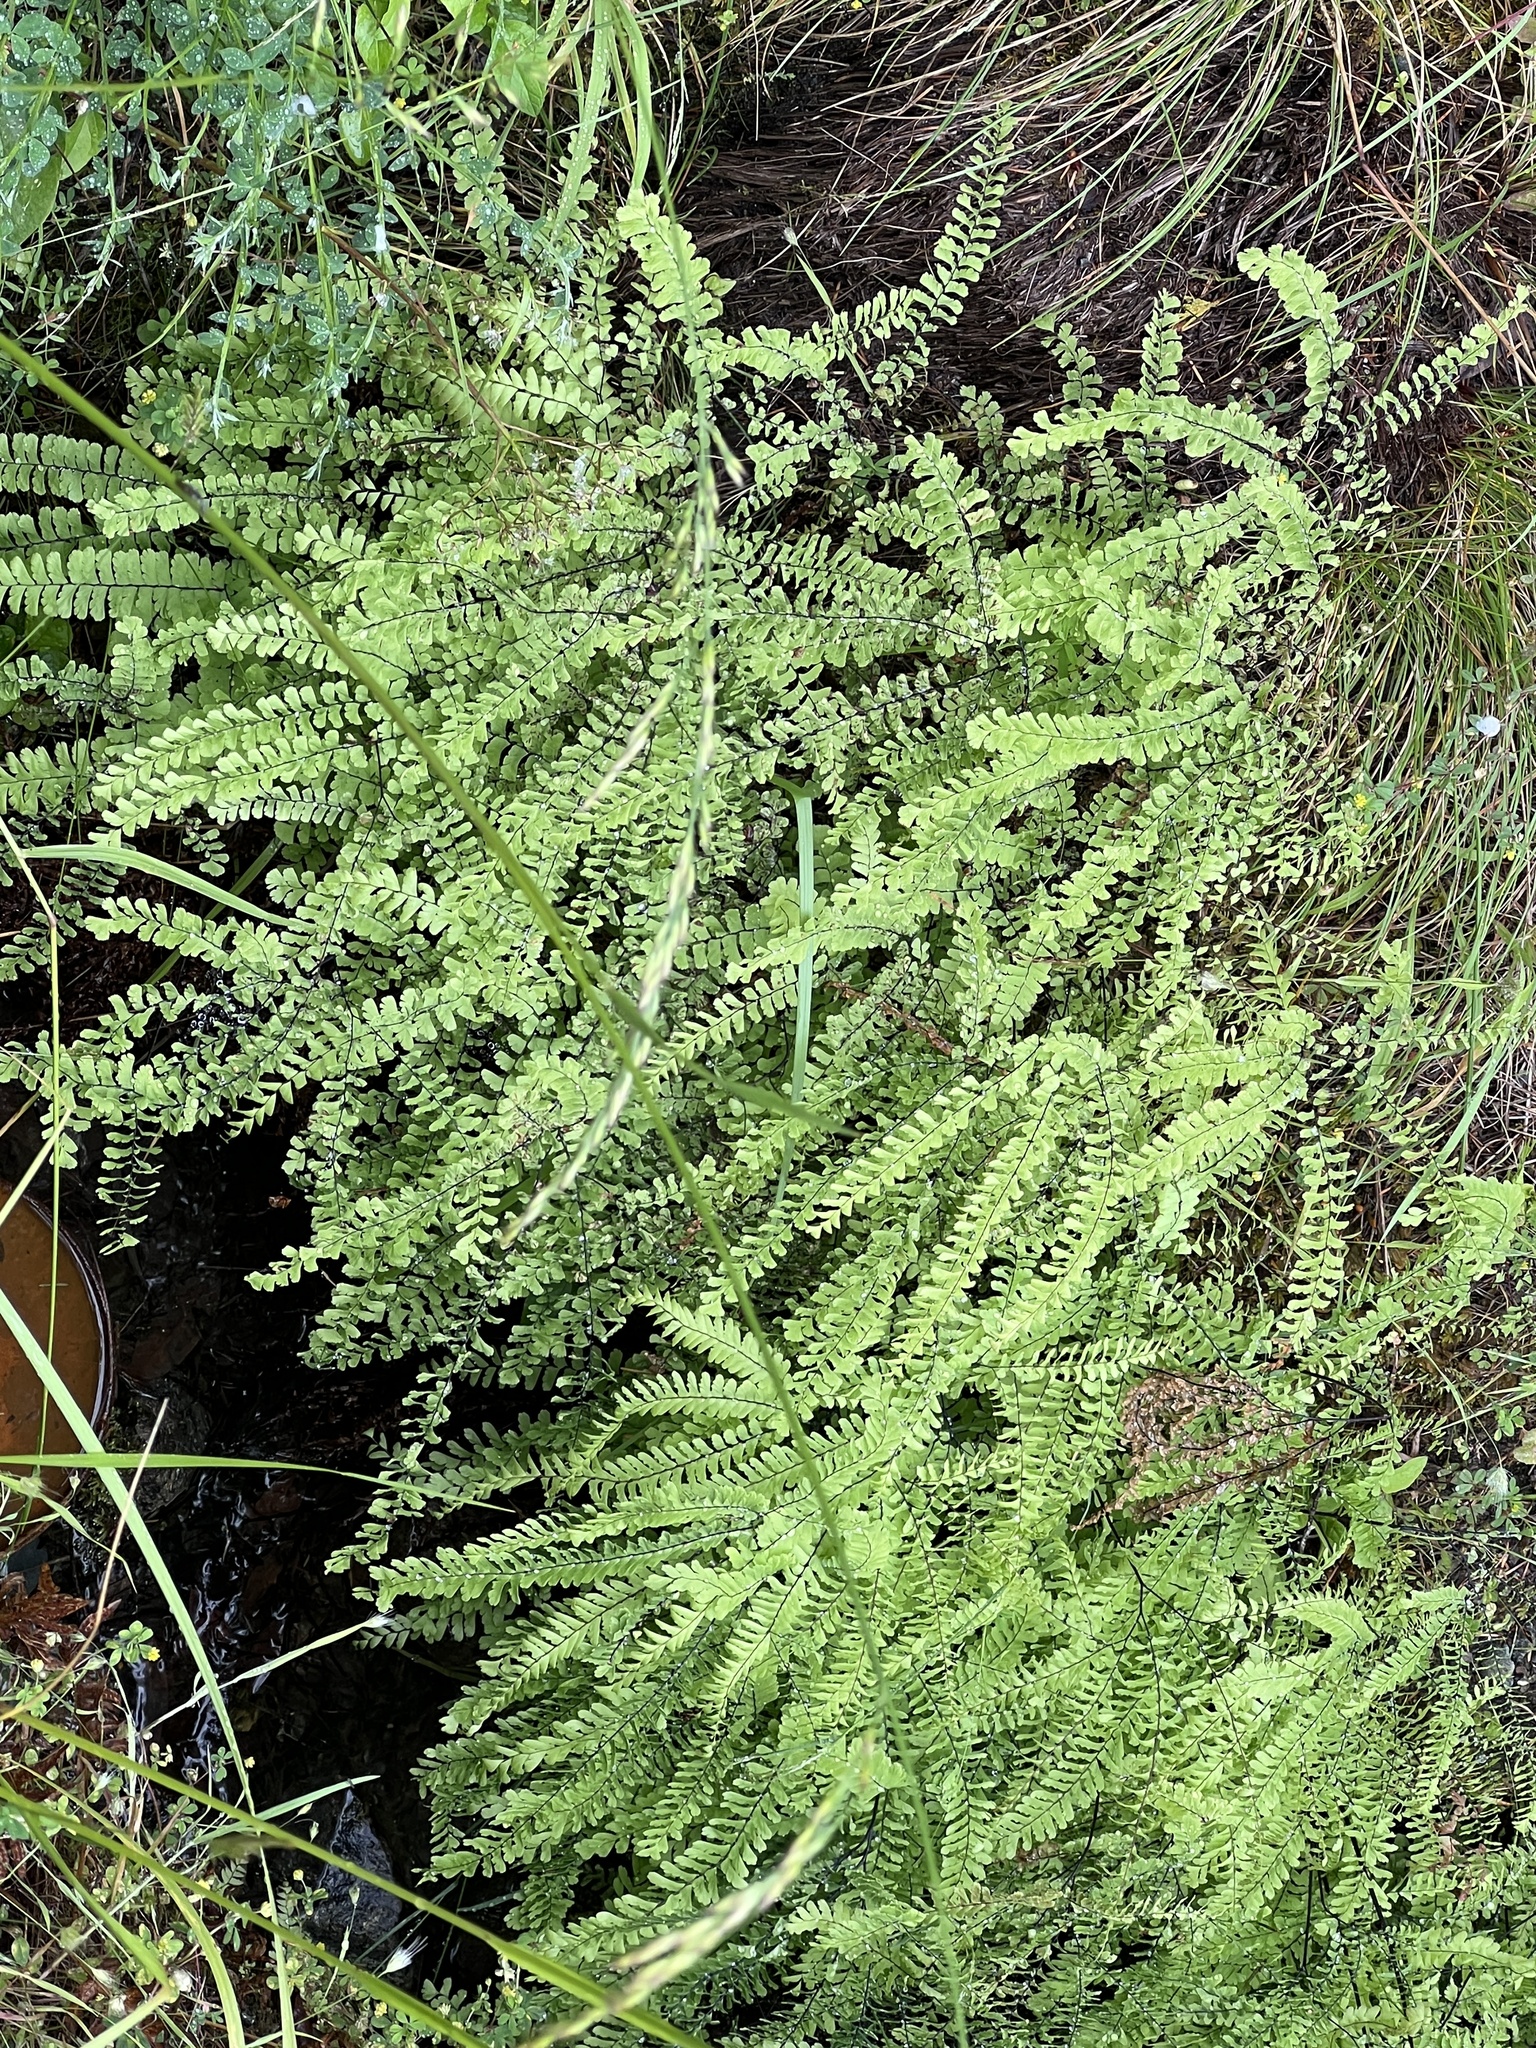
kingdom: Plantae
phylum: Tracheophyta
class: Polypodiopsida
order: Polypodiales
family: Pteridaceae
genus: Adiantum
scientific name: Adiantum aleuticum
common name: Aleutian maidenhair fern
